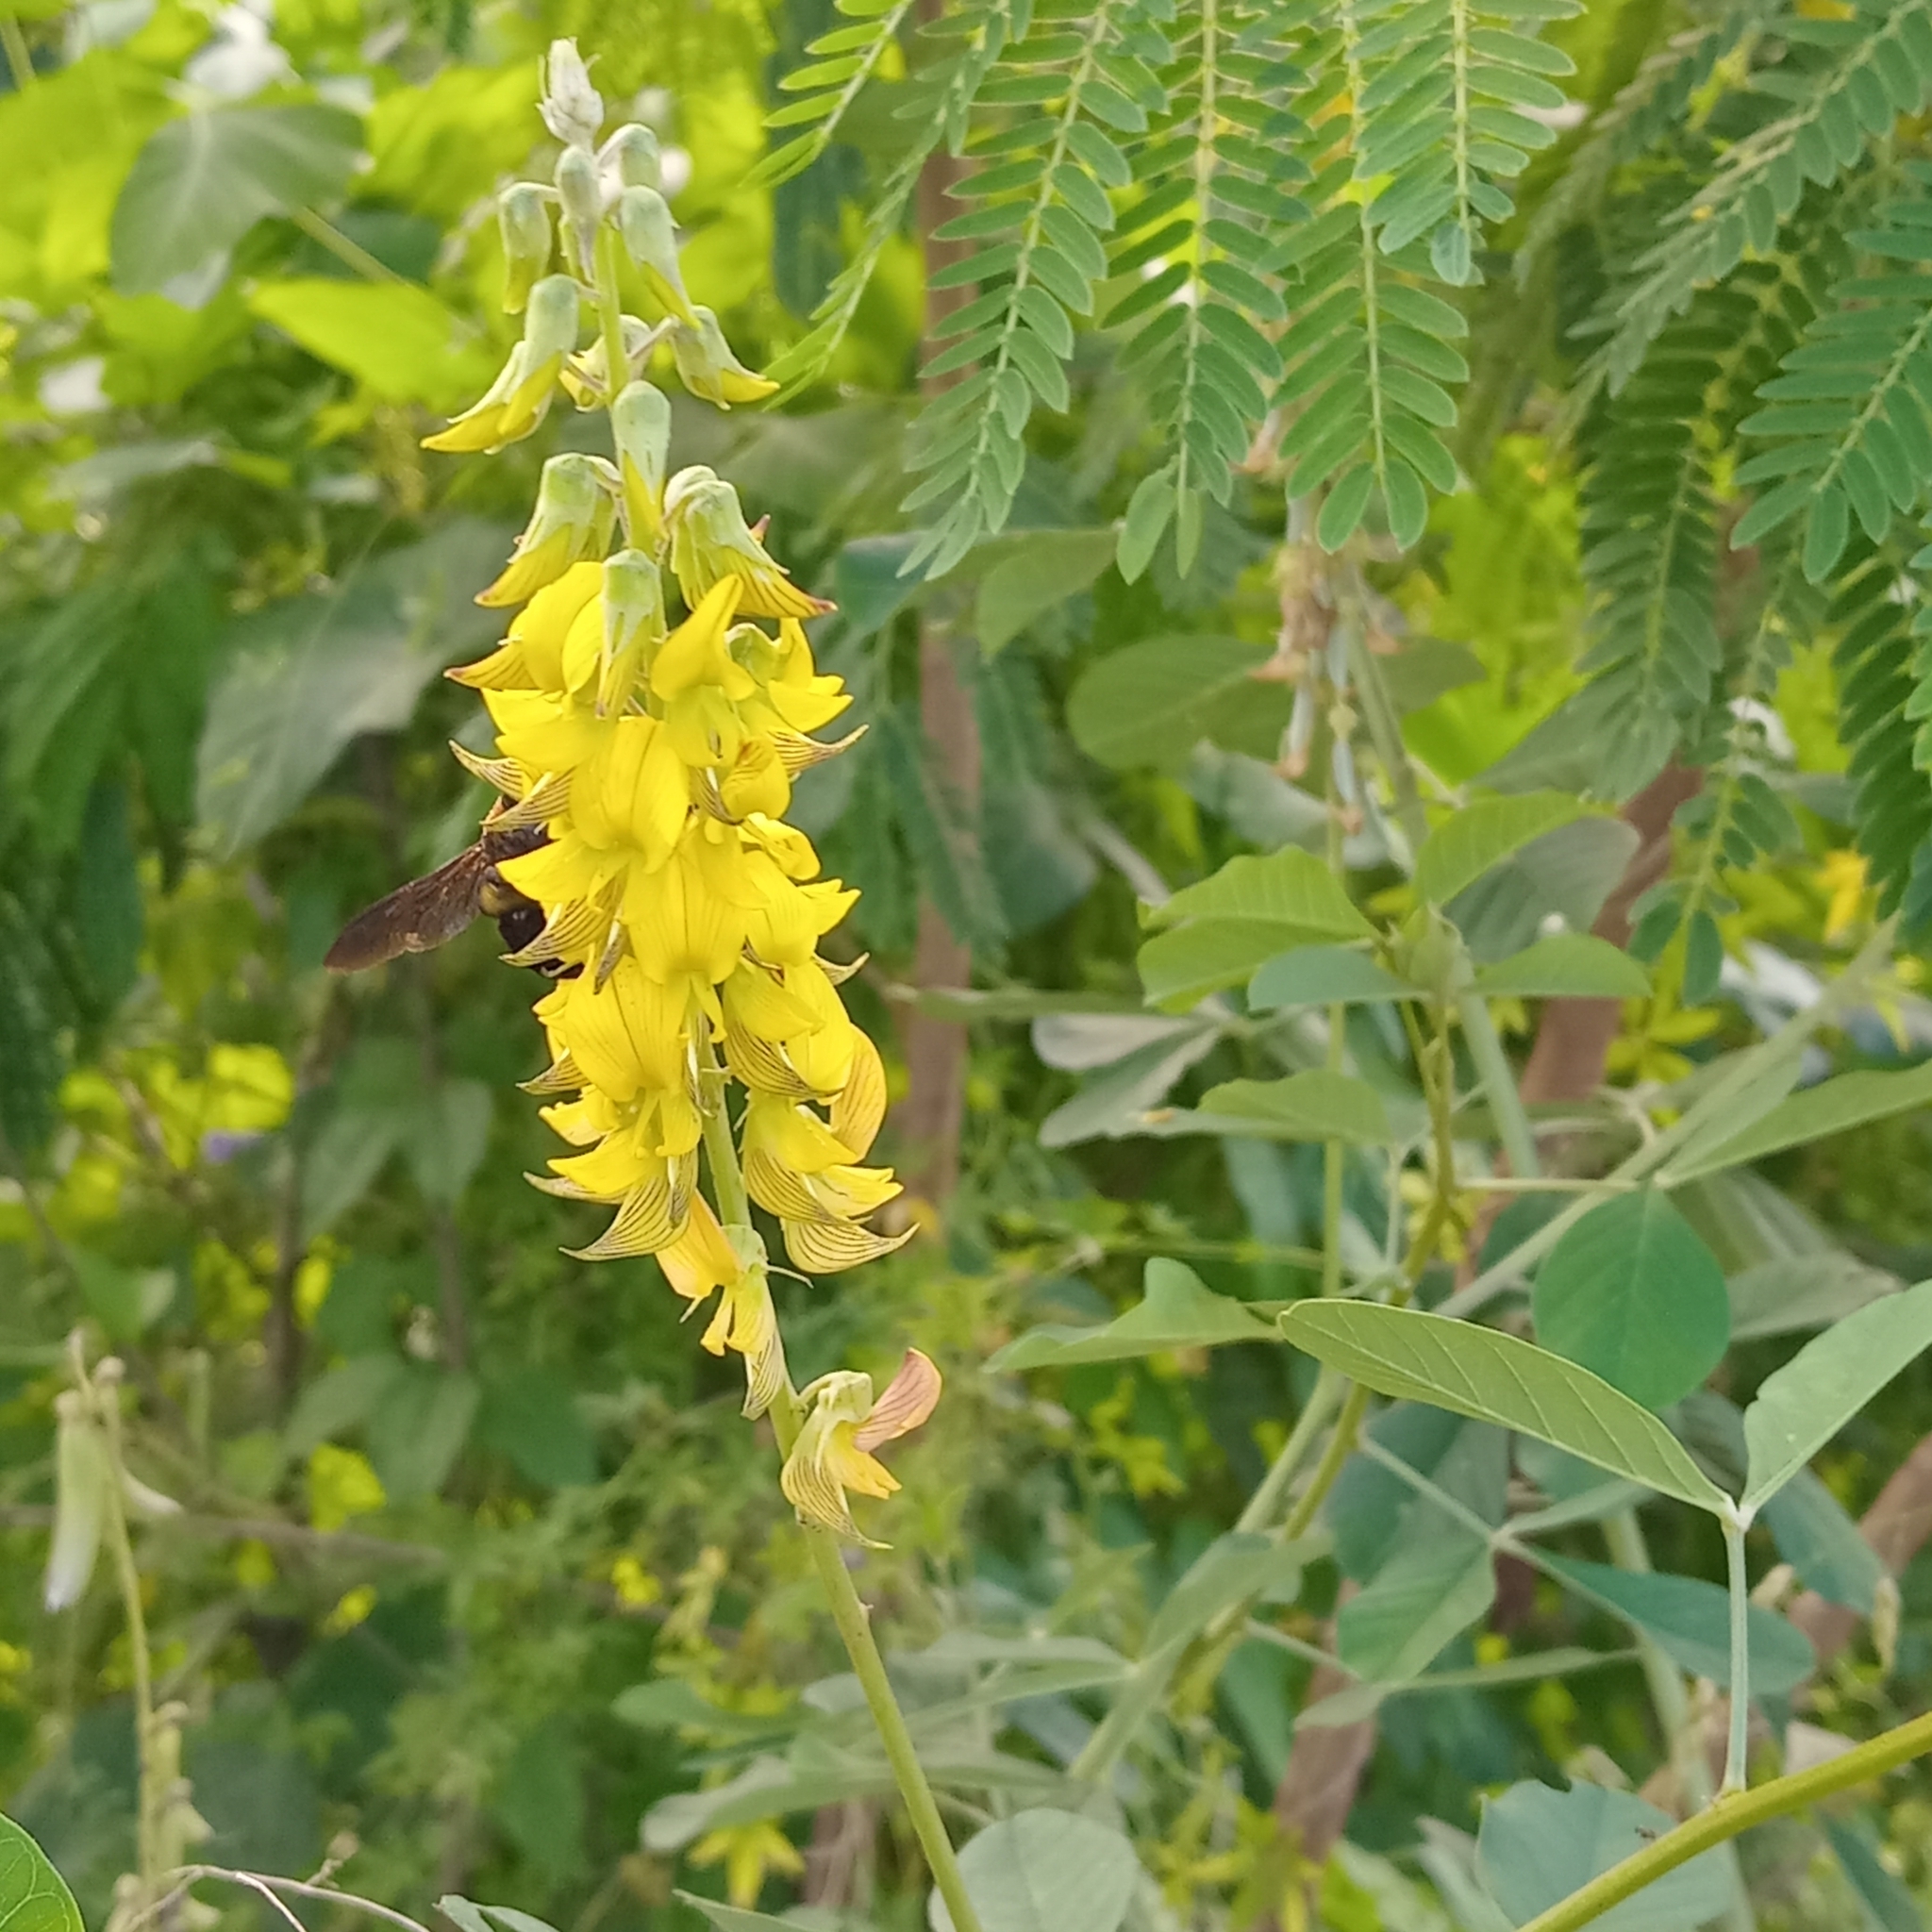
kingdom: Plantae
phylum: Tracheophyta
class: Magnoliopsida
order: Fabales
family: Fabaceae
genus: Crotalaria
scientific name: Crotalaria incana
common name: Shakeshake
